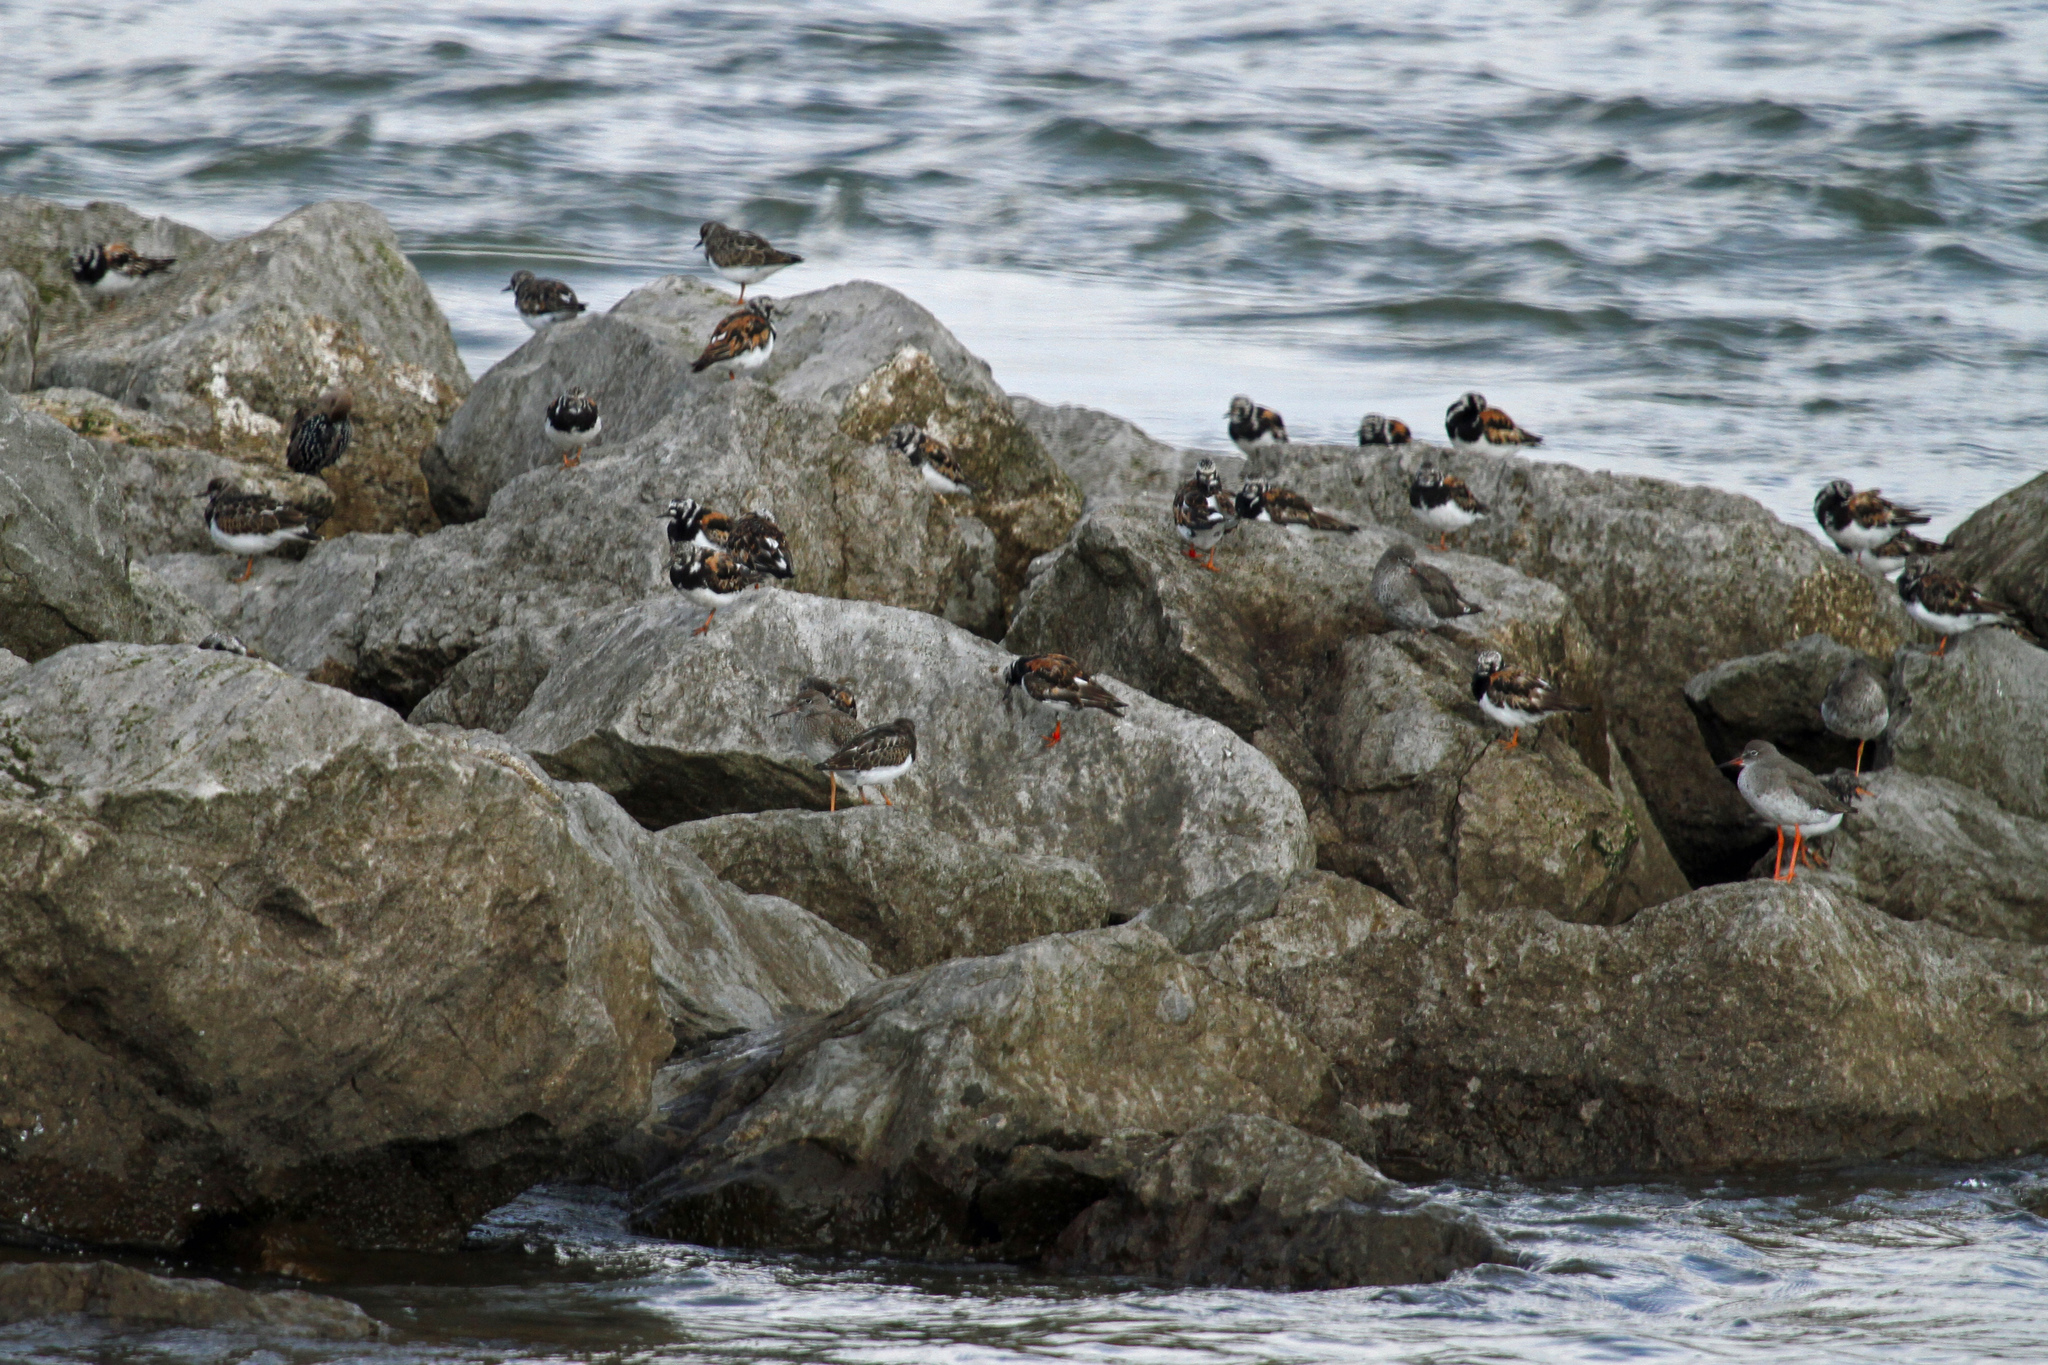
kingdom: Animalia
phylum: Chordata
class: Aves
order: Charadriiformes
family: Scolopacidae
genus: Arenaria
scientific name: Arenaria interpres
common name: Ruddy turnstone
